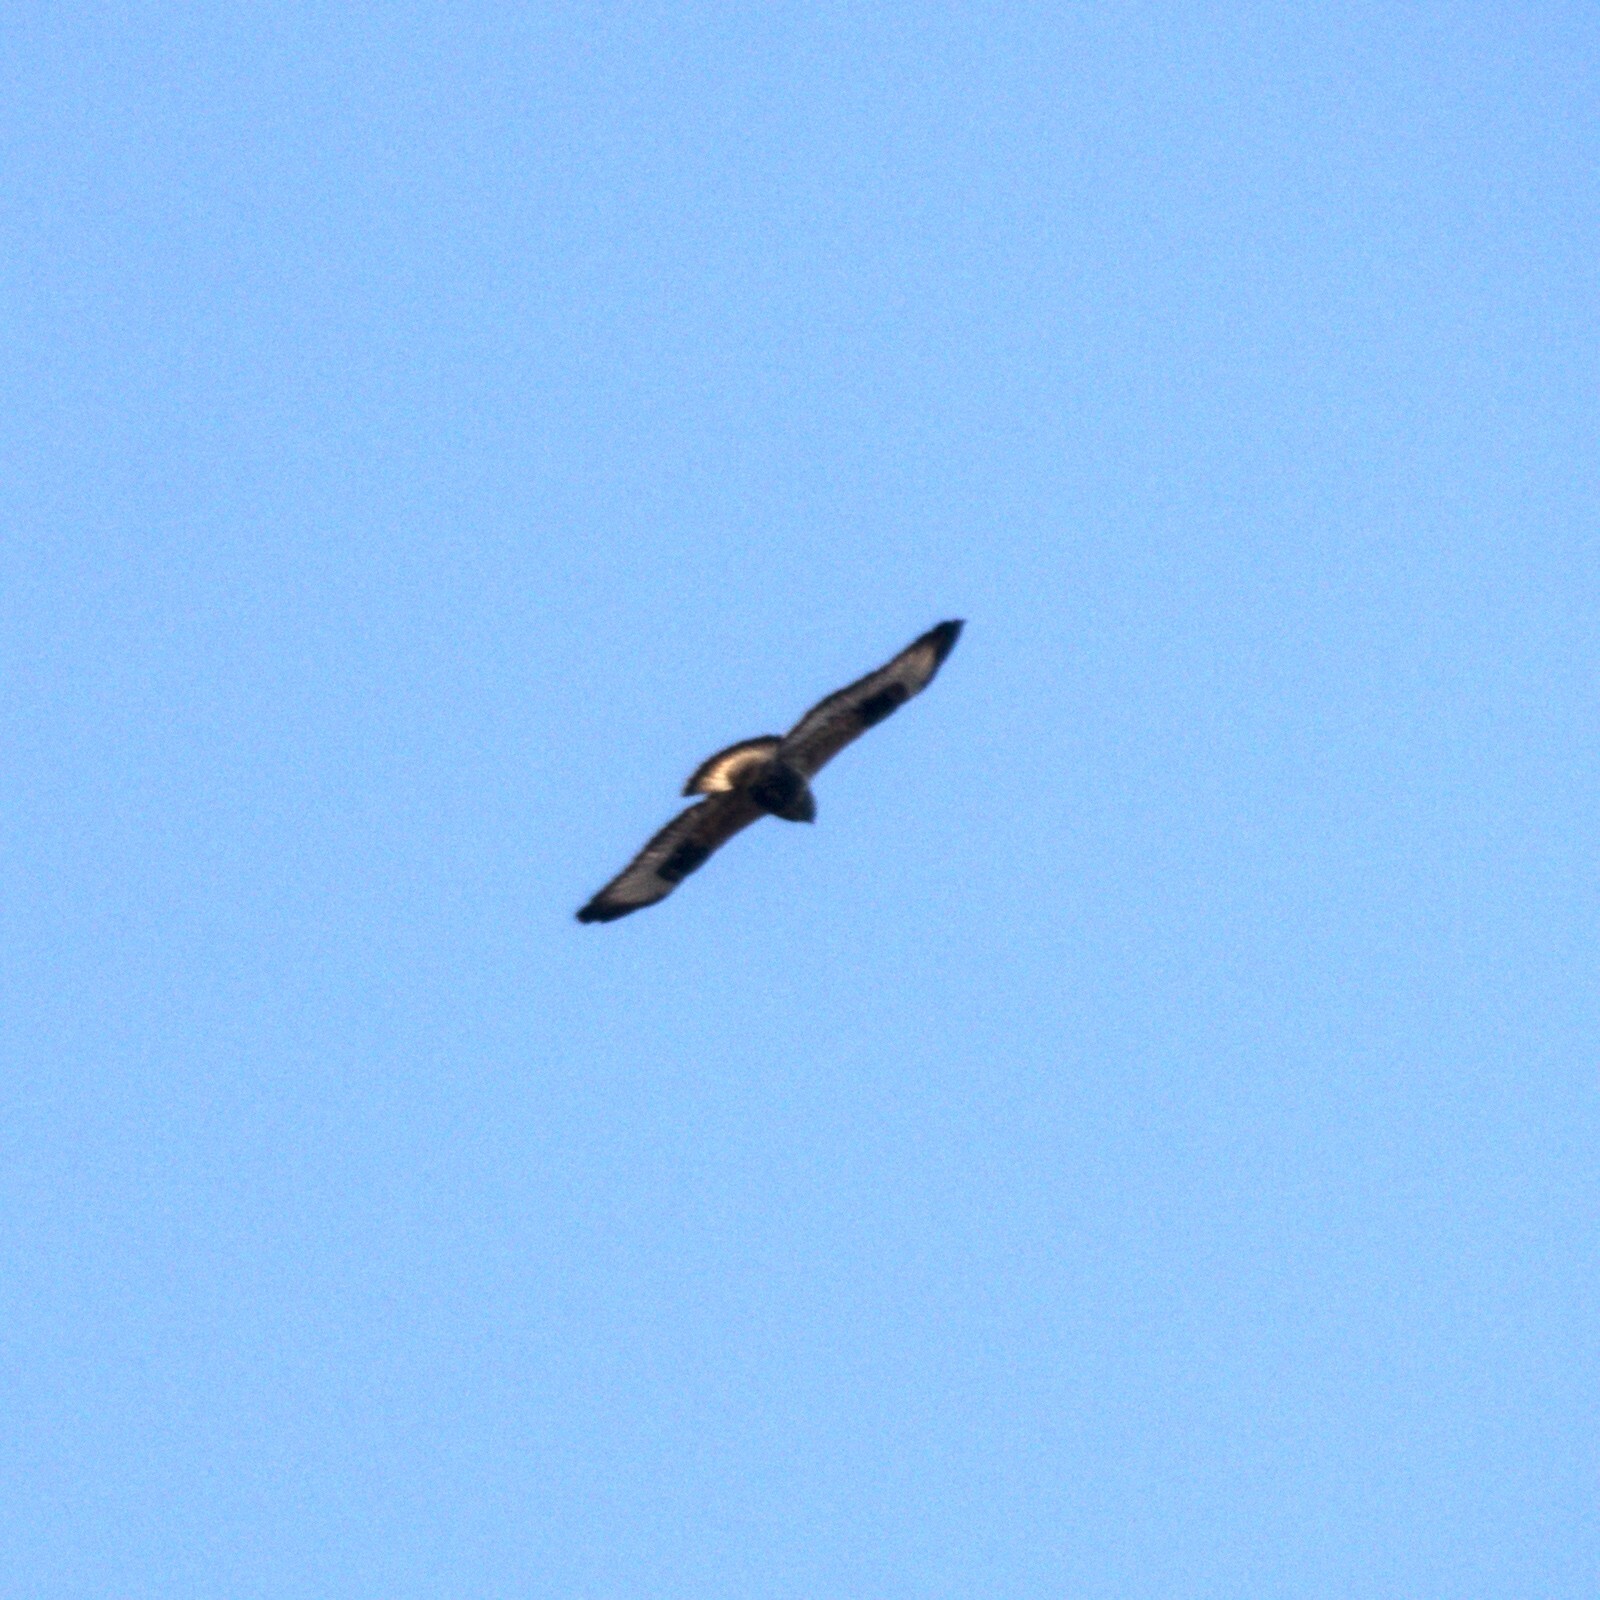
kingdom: Animalia
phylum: Chordata
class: Aves
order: Accipitriformes
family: Accipitridae
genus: Buteo
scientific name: Buteo lagopus
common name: Rough-legged buzzard
